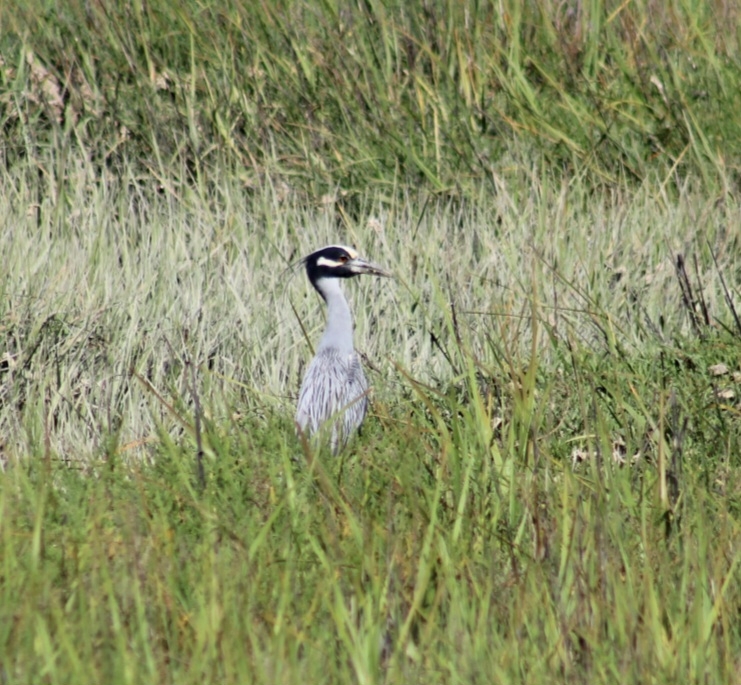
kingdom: Animalia
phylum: Chordata
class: Aves
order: Pelecaniformes
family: Ardeidae
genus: Nyctanassa
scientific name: Nyctanassa violacea
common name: Yellow-crowned night heron
